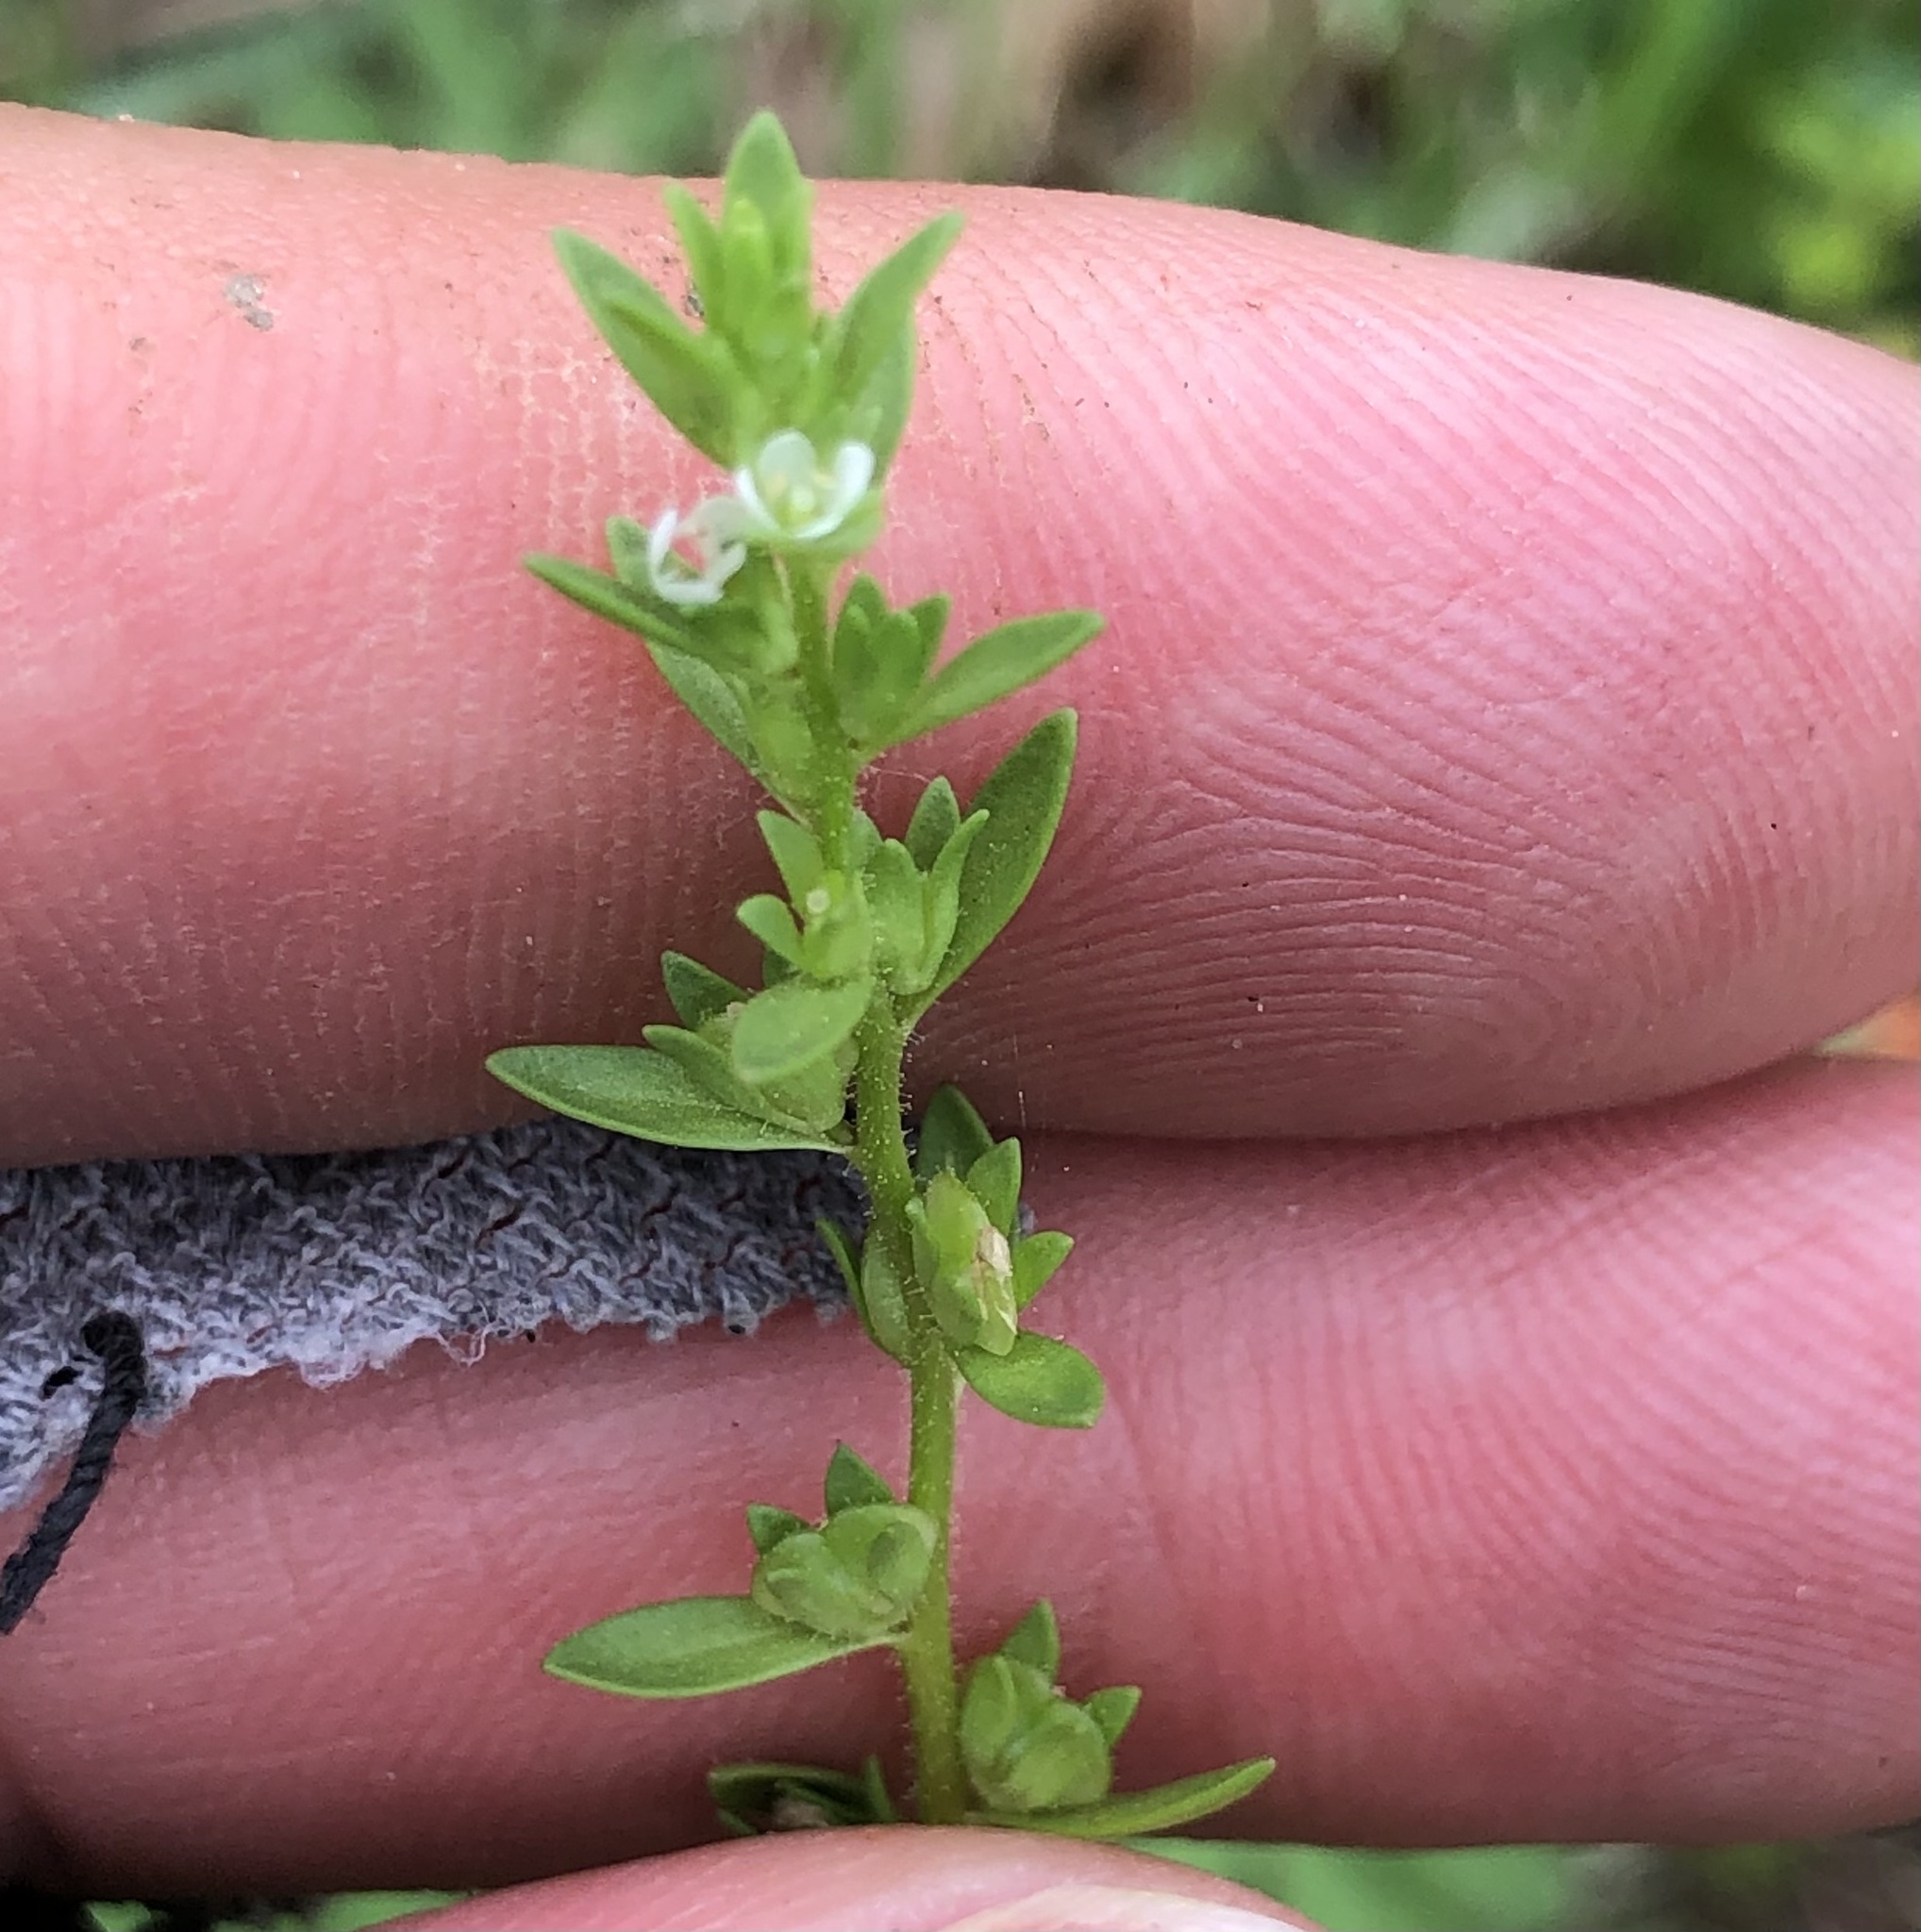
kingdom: Plantae
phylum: Tracheophyta
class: Magnoliopsida
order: Lamiales
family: Plantaginaceae
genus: Veronica
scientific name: Veronica peregrina
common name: Neckweed
